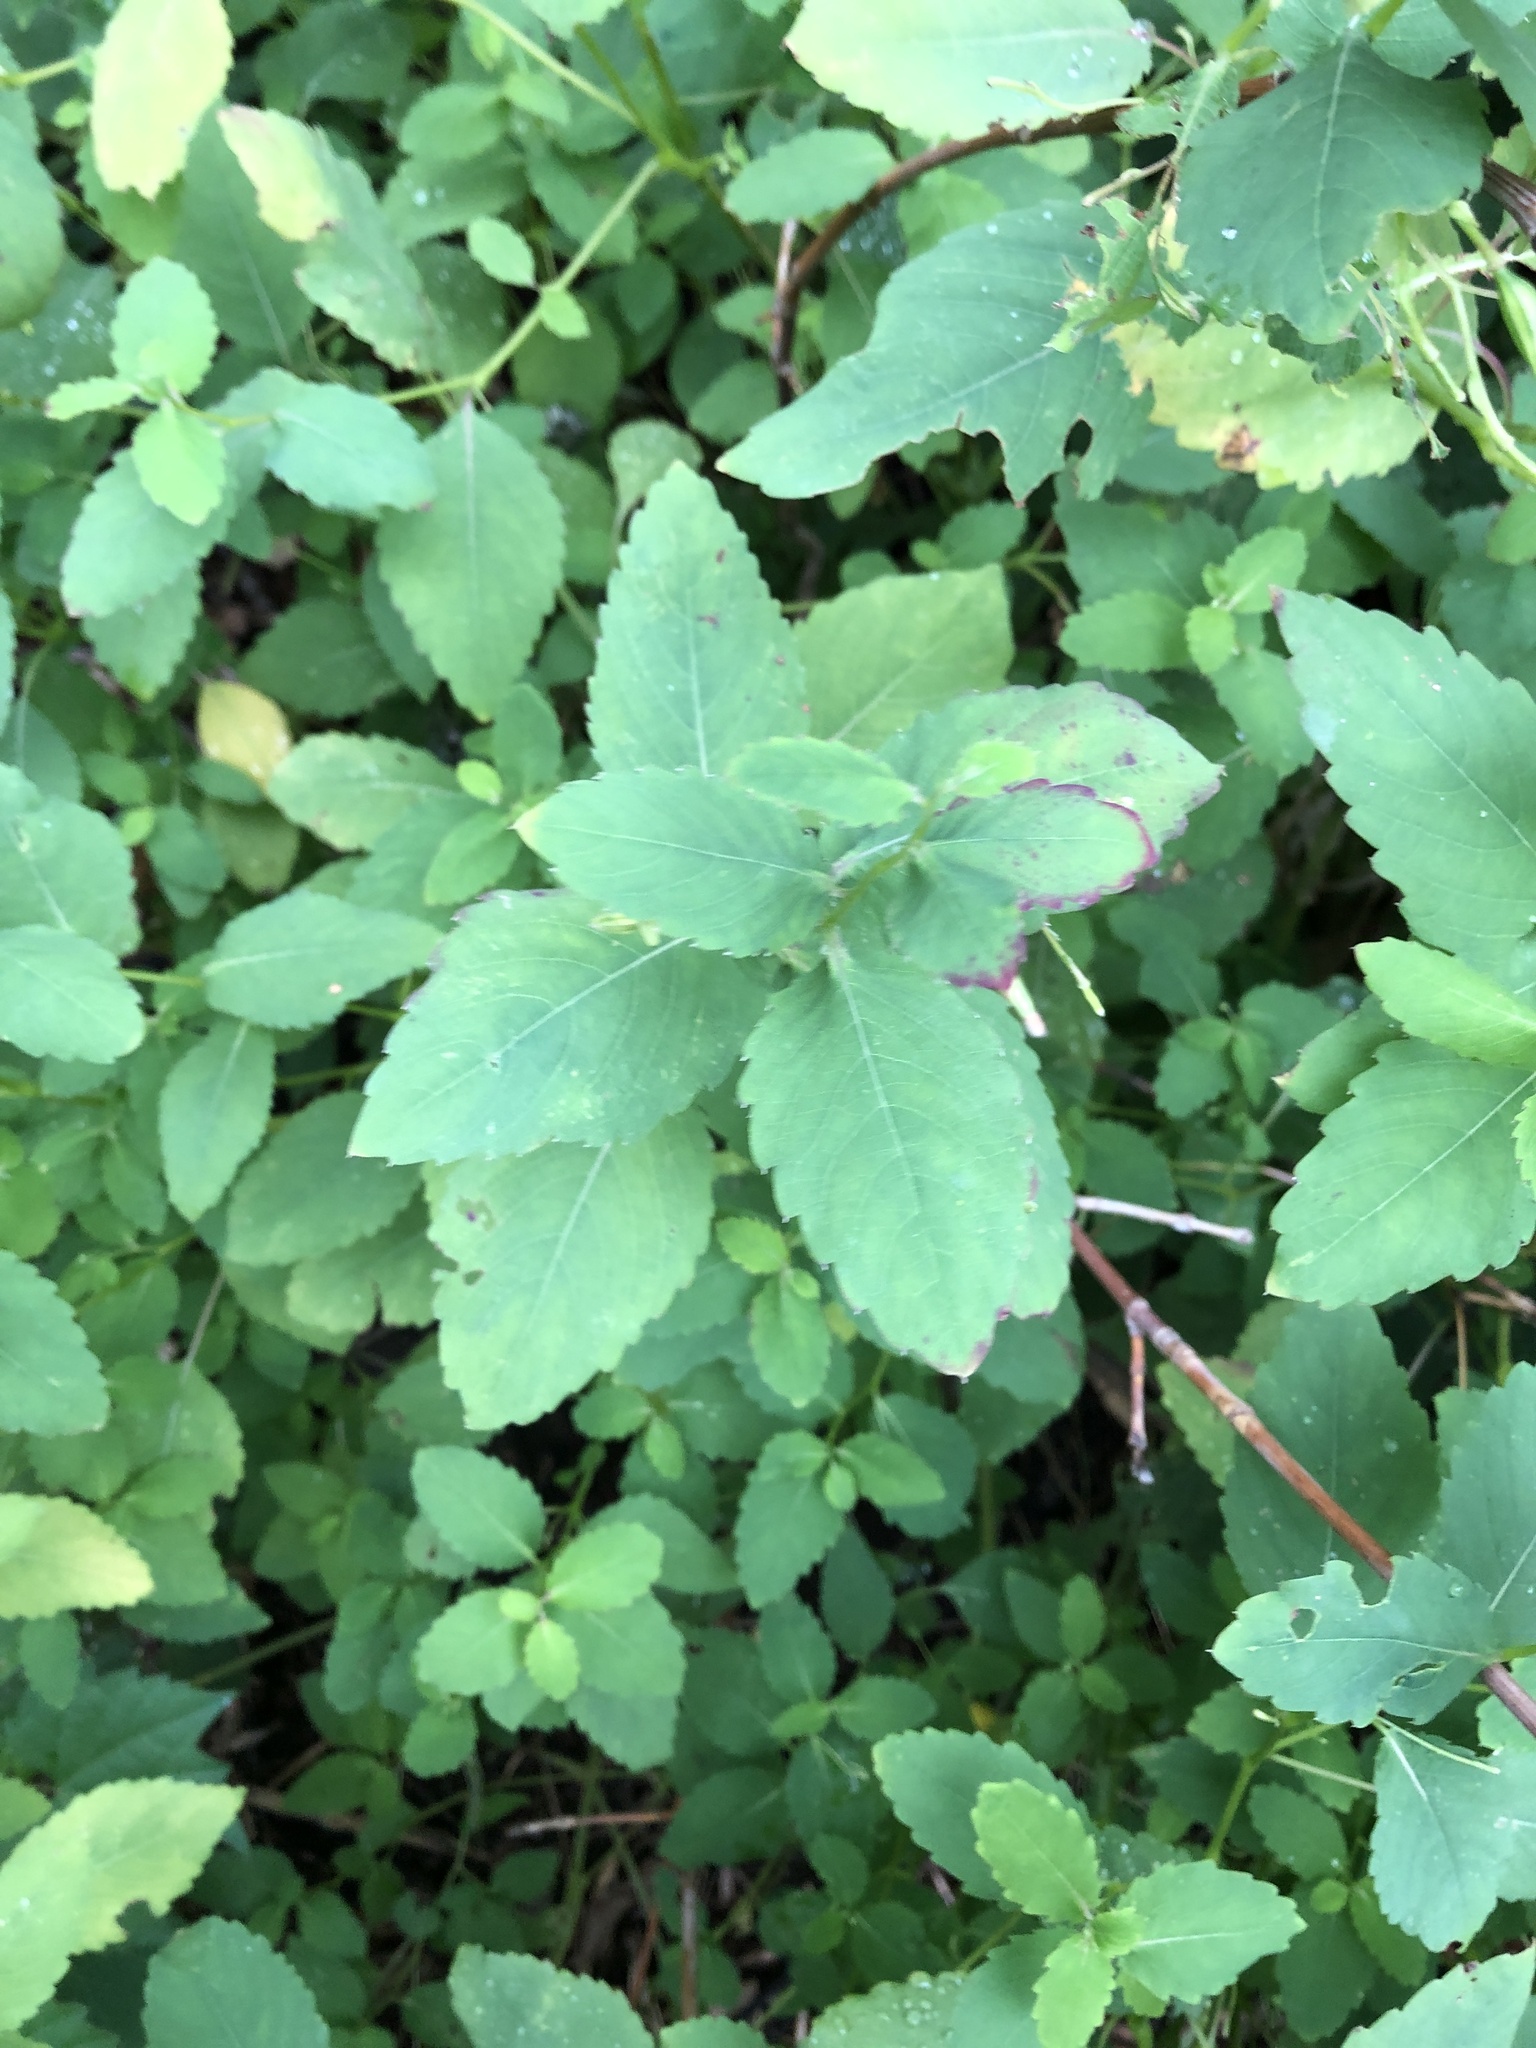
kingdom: Plantae
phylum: Tracheophyta
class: Magnoliopsida
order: Ericales
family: Balsaminaceae
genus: Impatiens
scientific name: Impatiens pallida
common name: Pale snapweed
